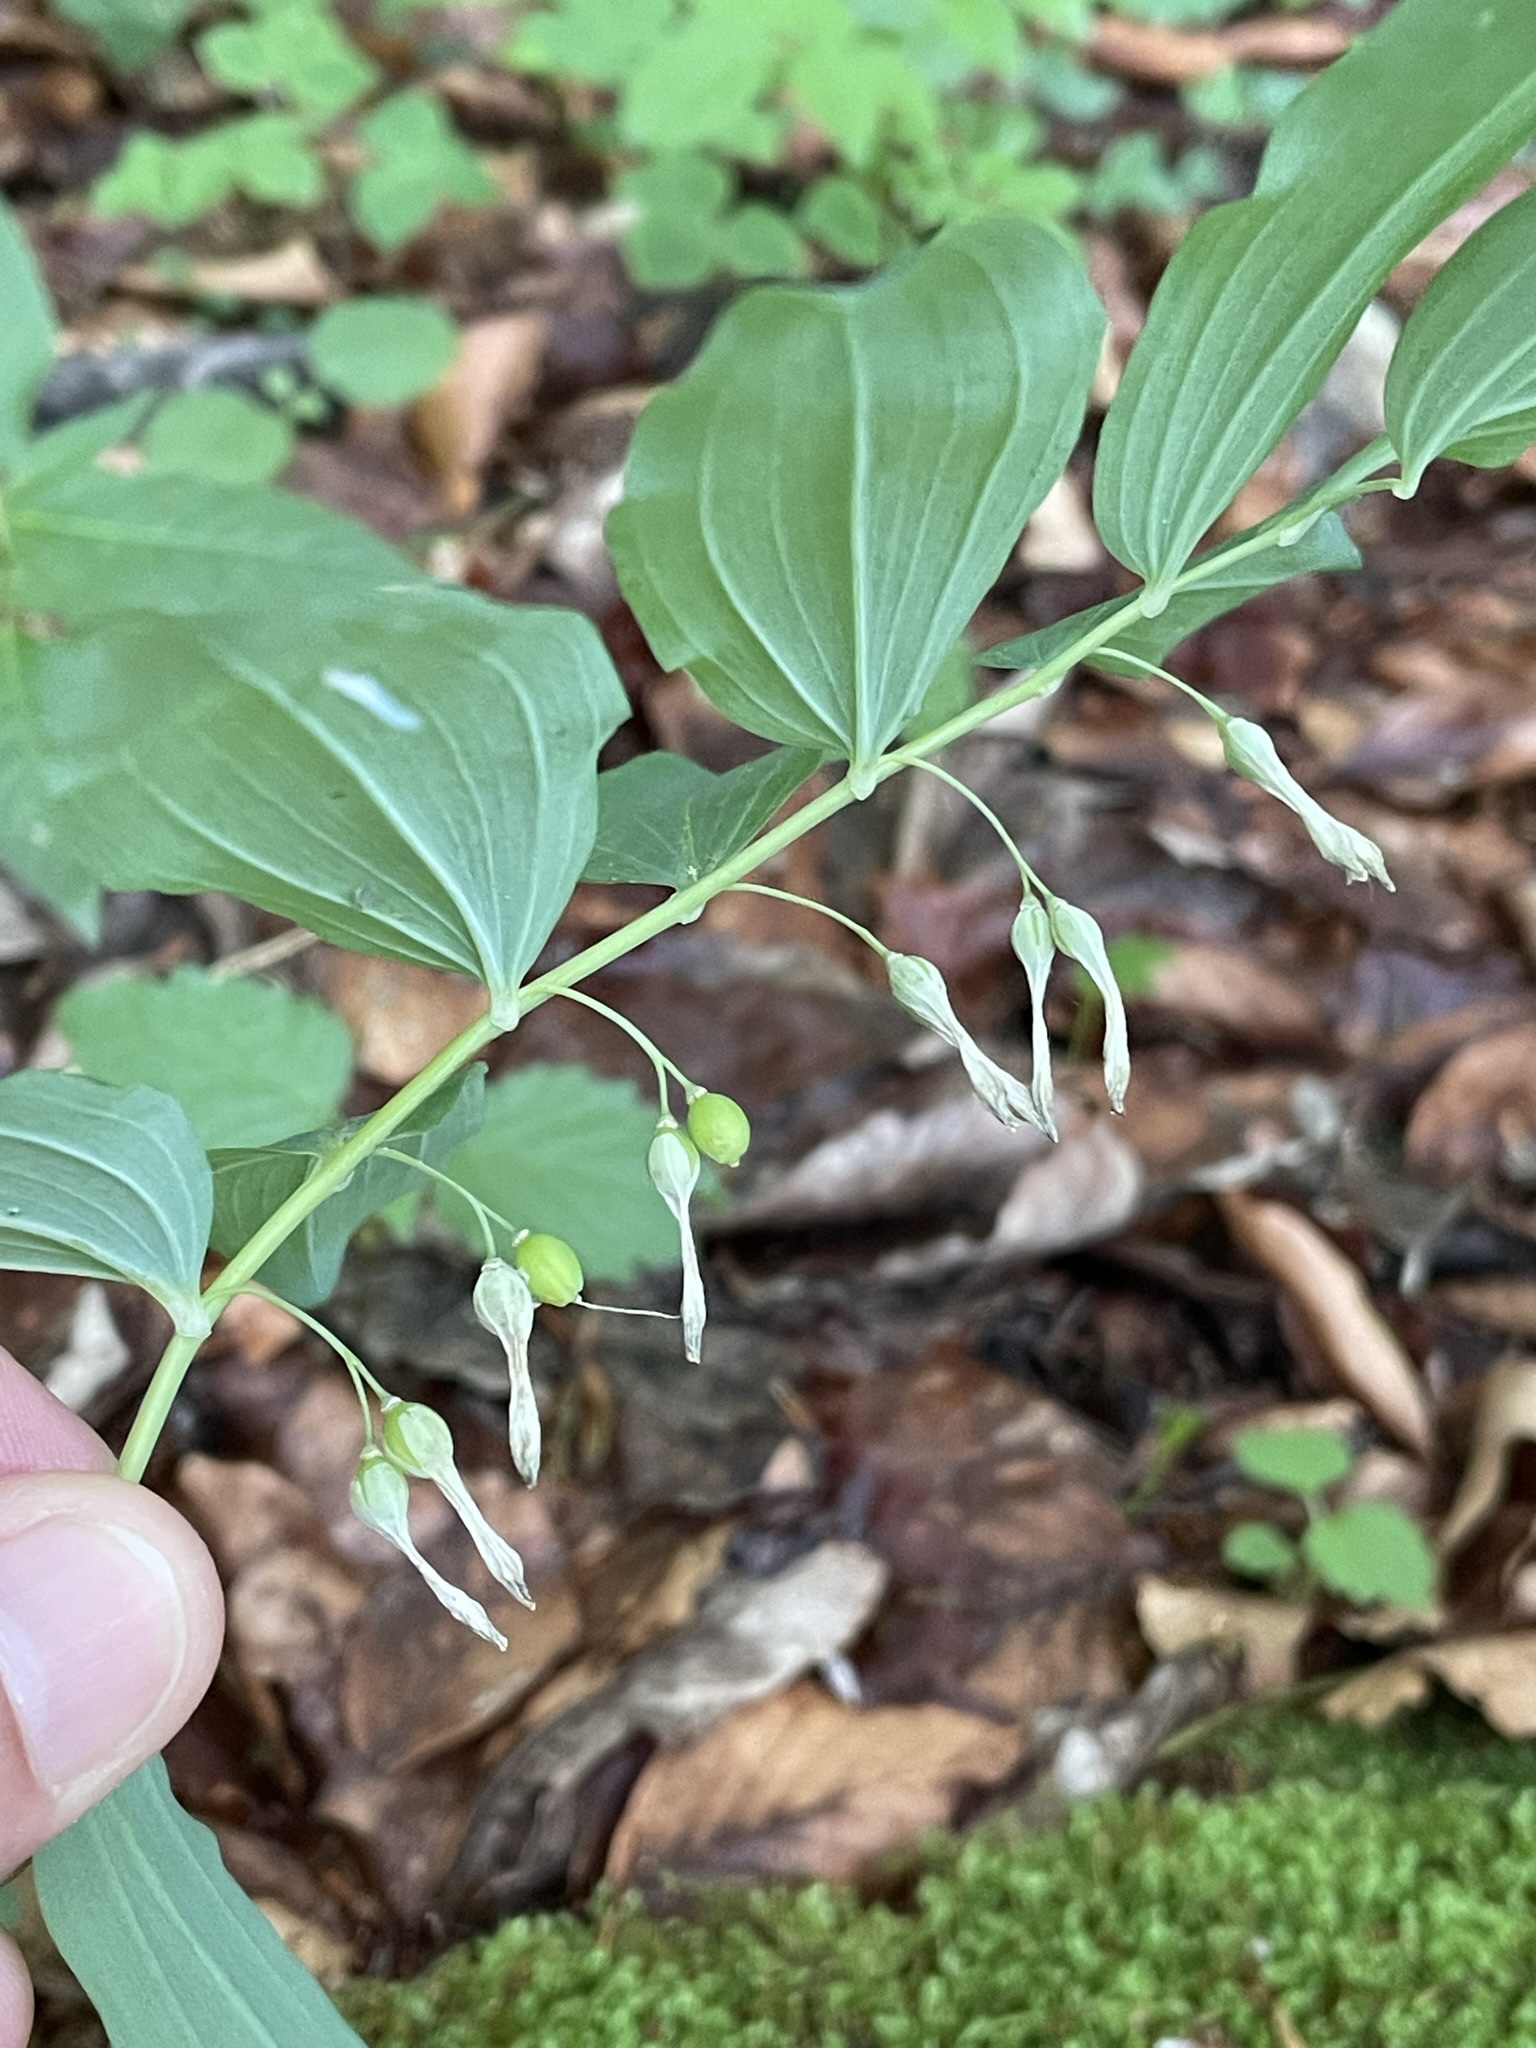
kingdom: Plantae
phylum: Tracheophyta
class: Liliopsida
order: Asparagales
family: Asparagaceae
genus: Polygonatum
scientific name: Polygonatum multiflorum
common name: Solomon's-seal
